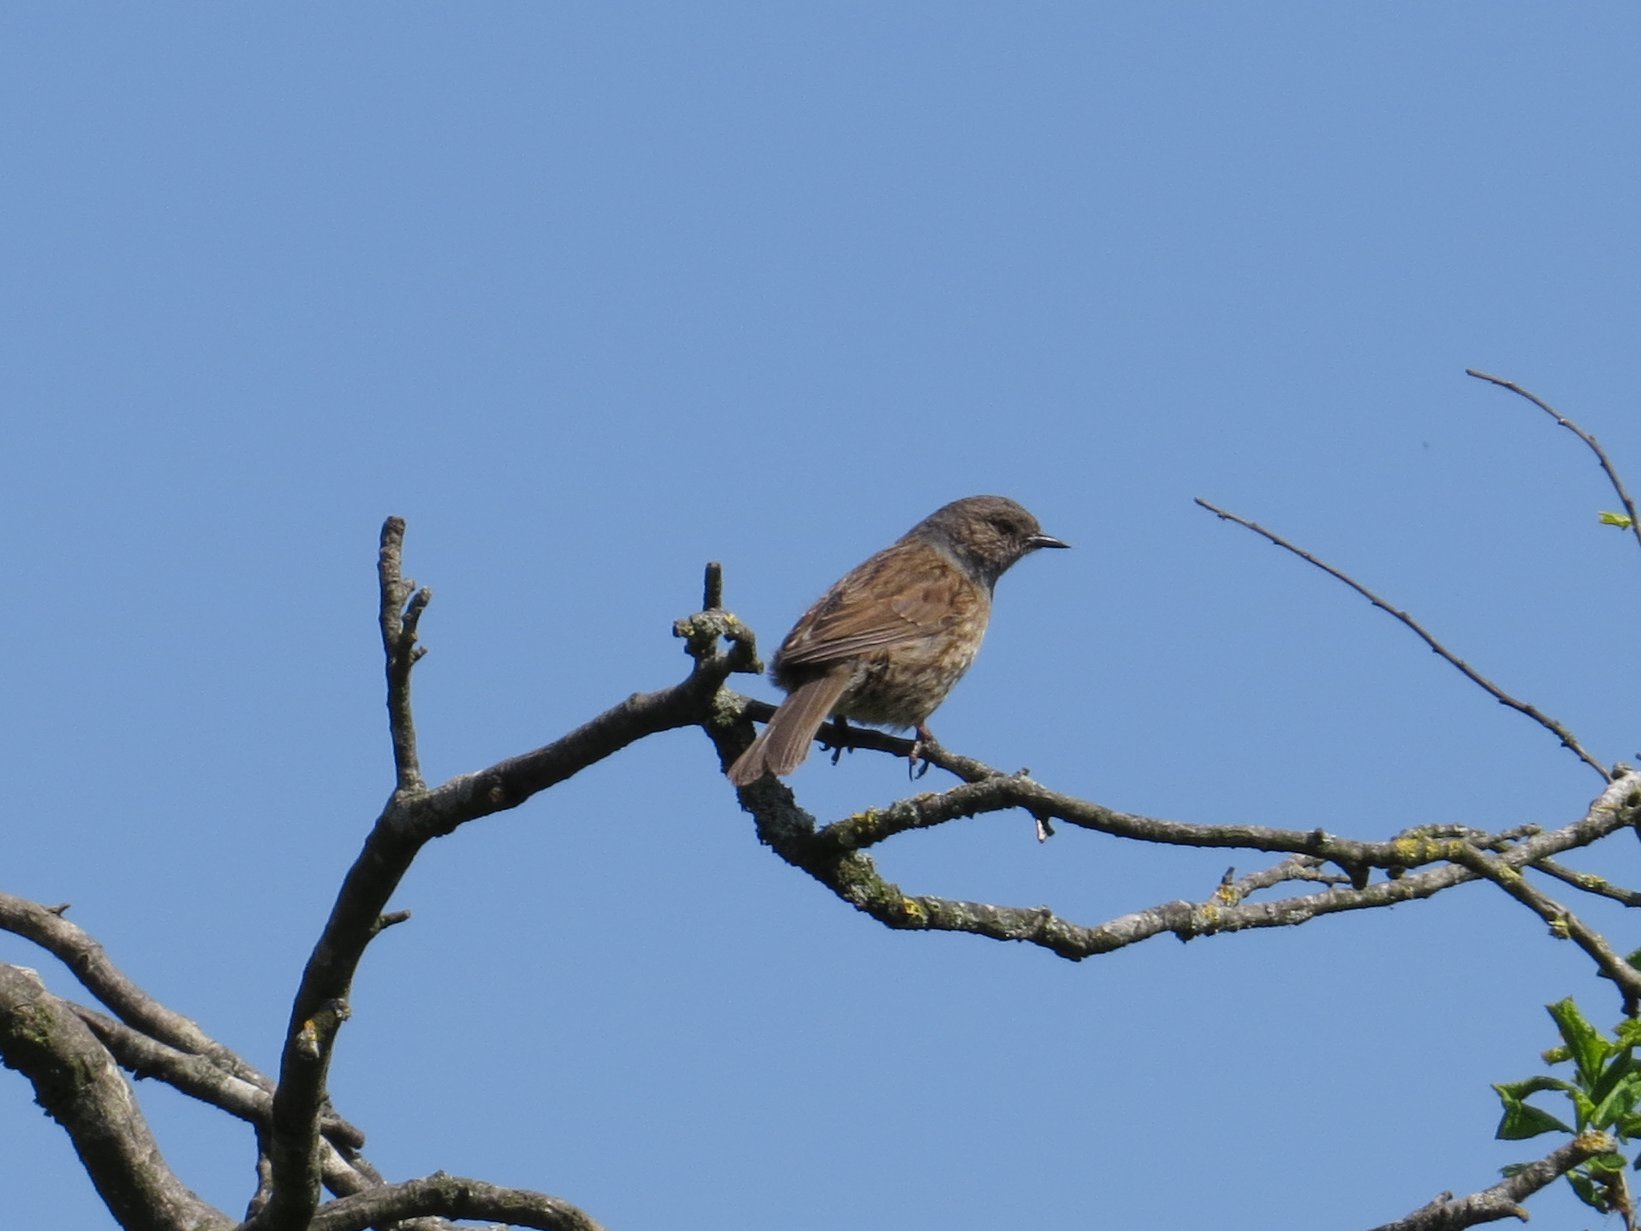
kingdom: Animalia
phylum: Chordata
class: Aves
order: Passeriformes
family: Prunellidae
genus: Prunella
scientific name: Prunella modularis
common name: Dunnock
